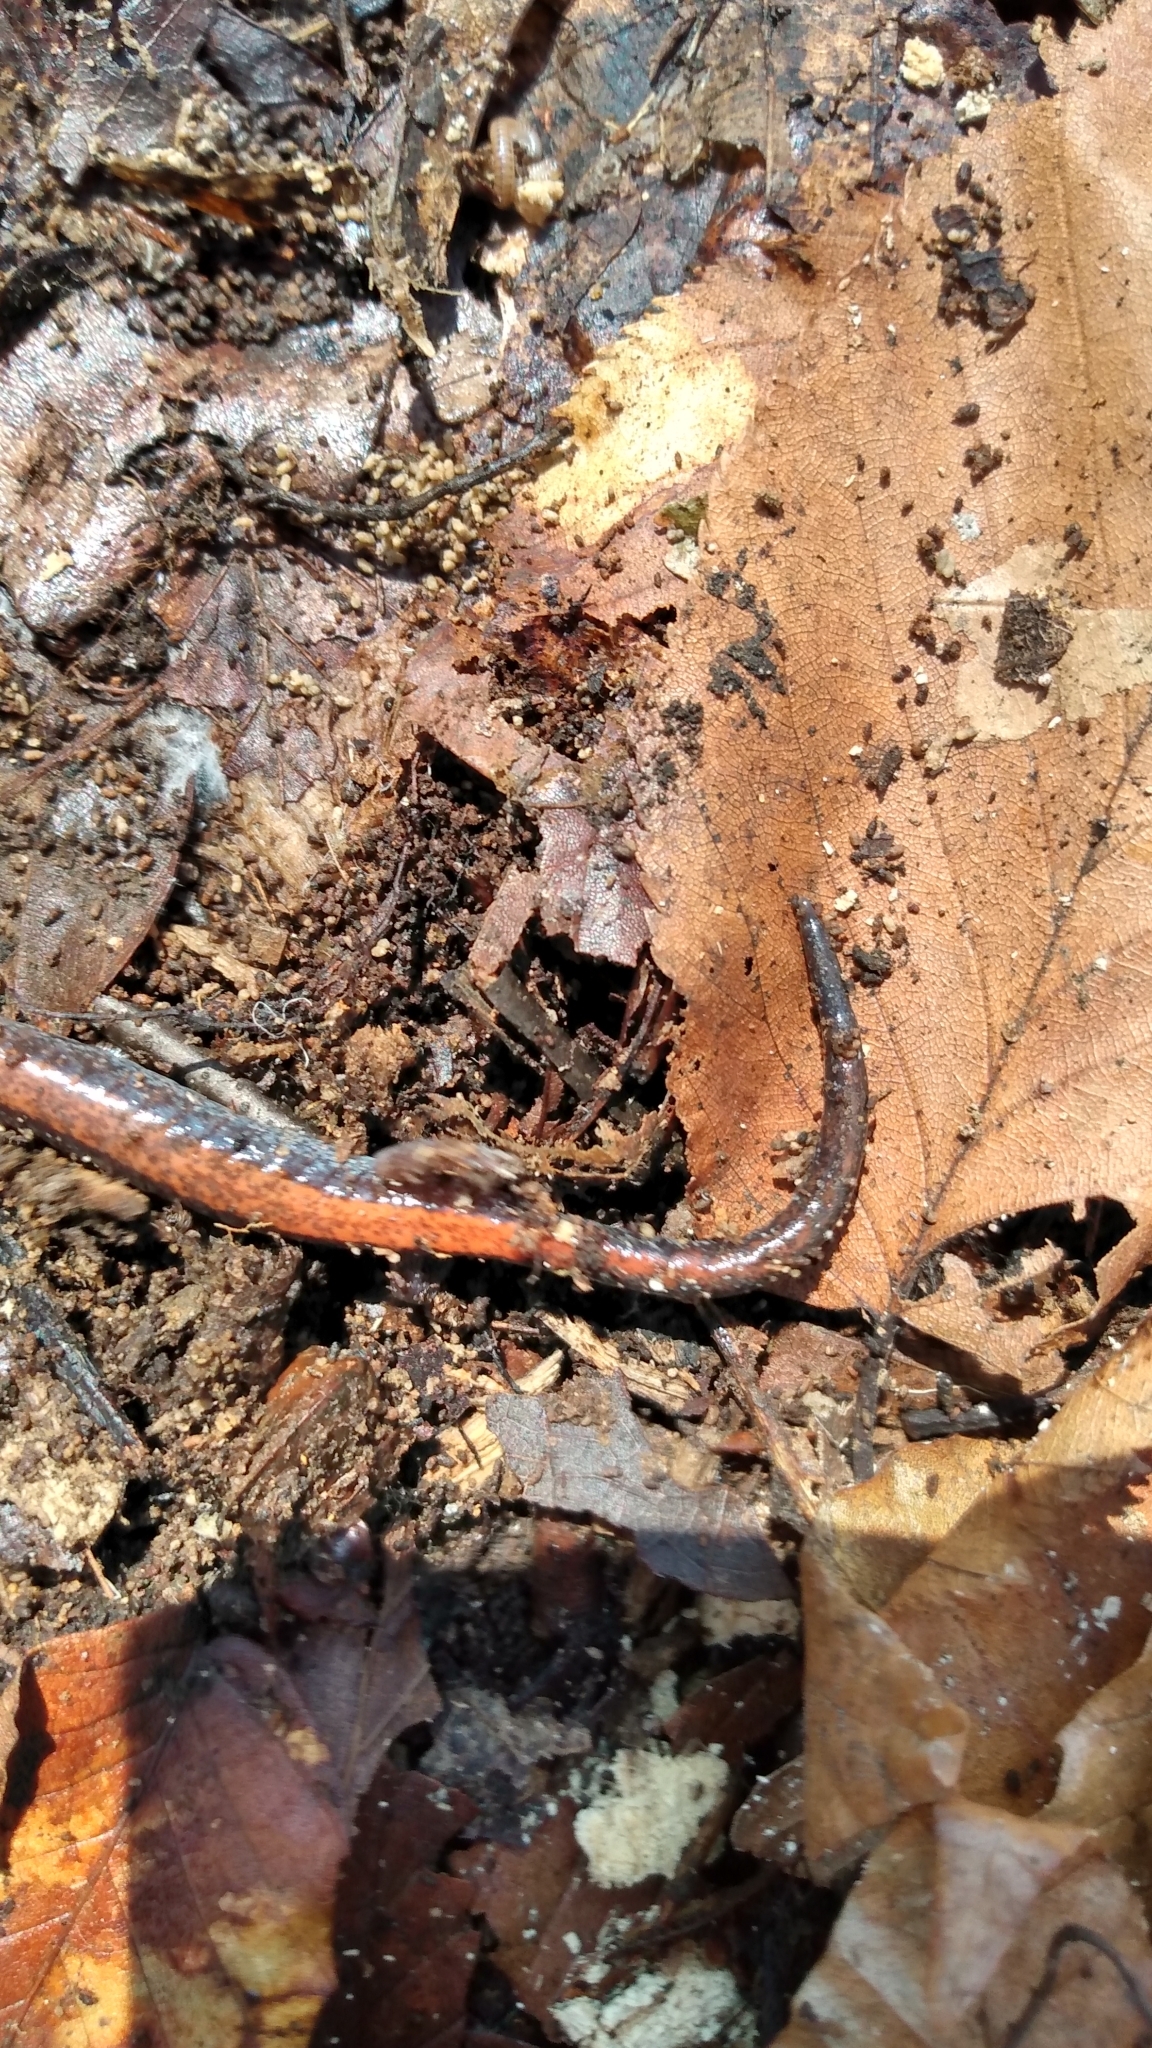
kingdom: Animalia
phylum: Chordata
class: Amphibia
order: Caudata
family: Plethodontidae
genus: Plethodon
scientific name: Plethodon cinereus
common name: Redback salamander
